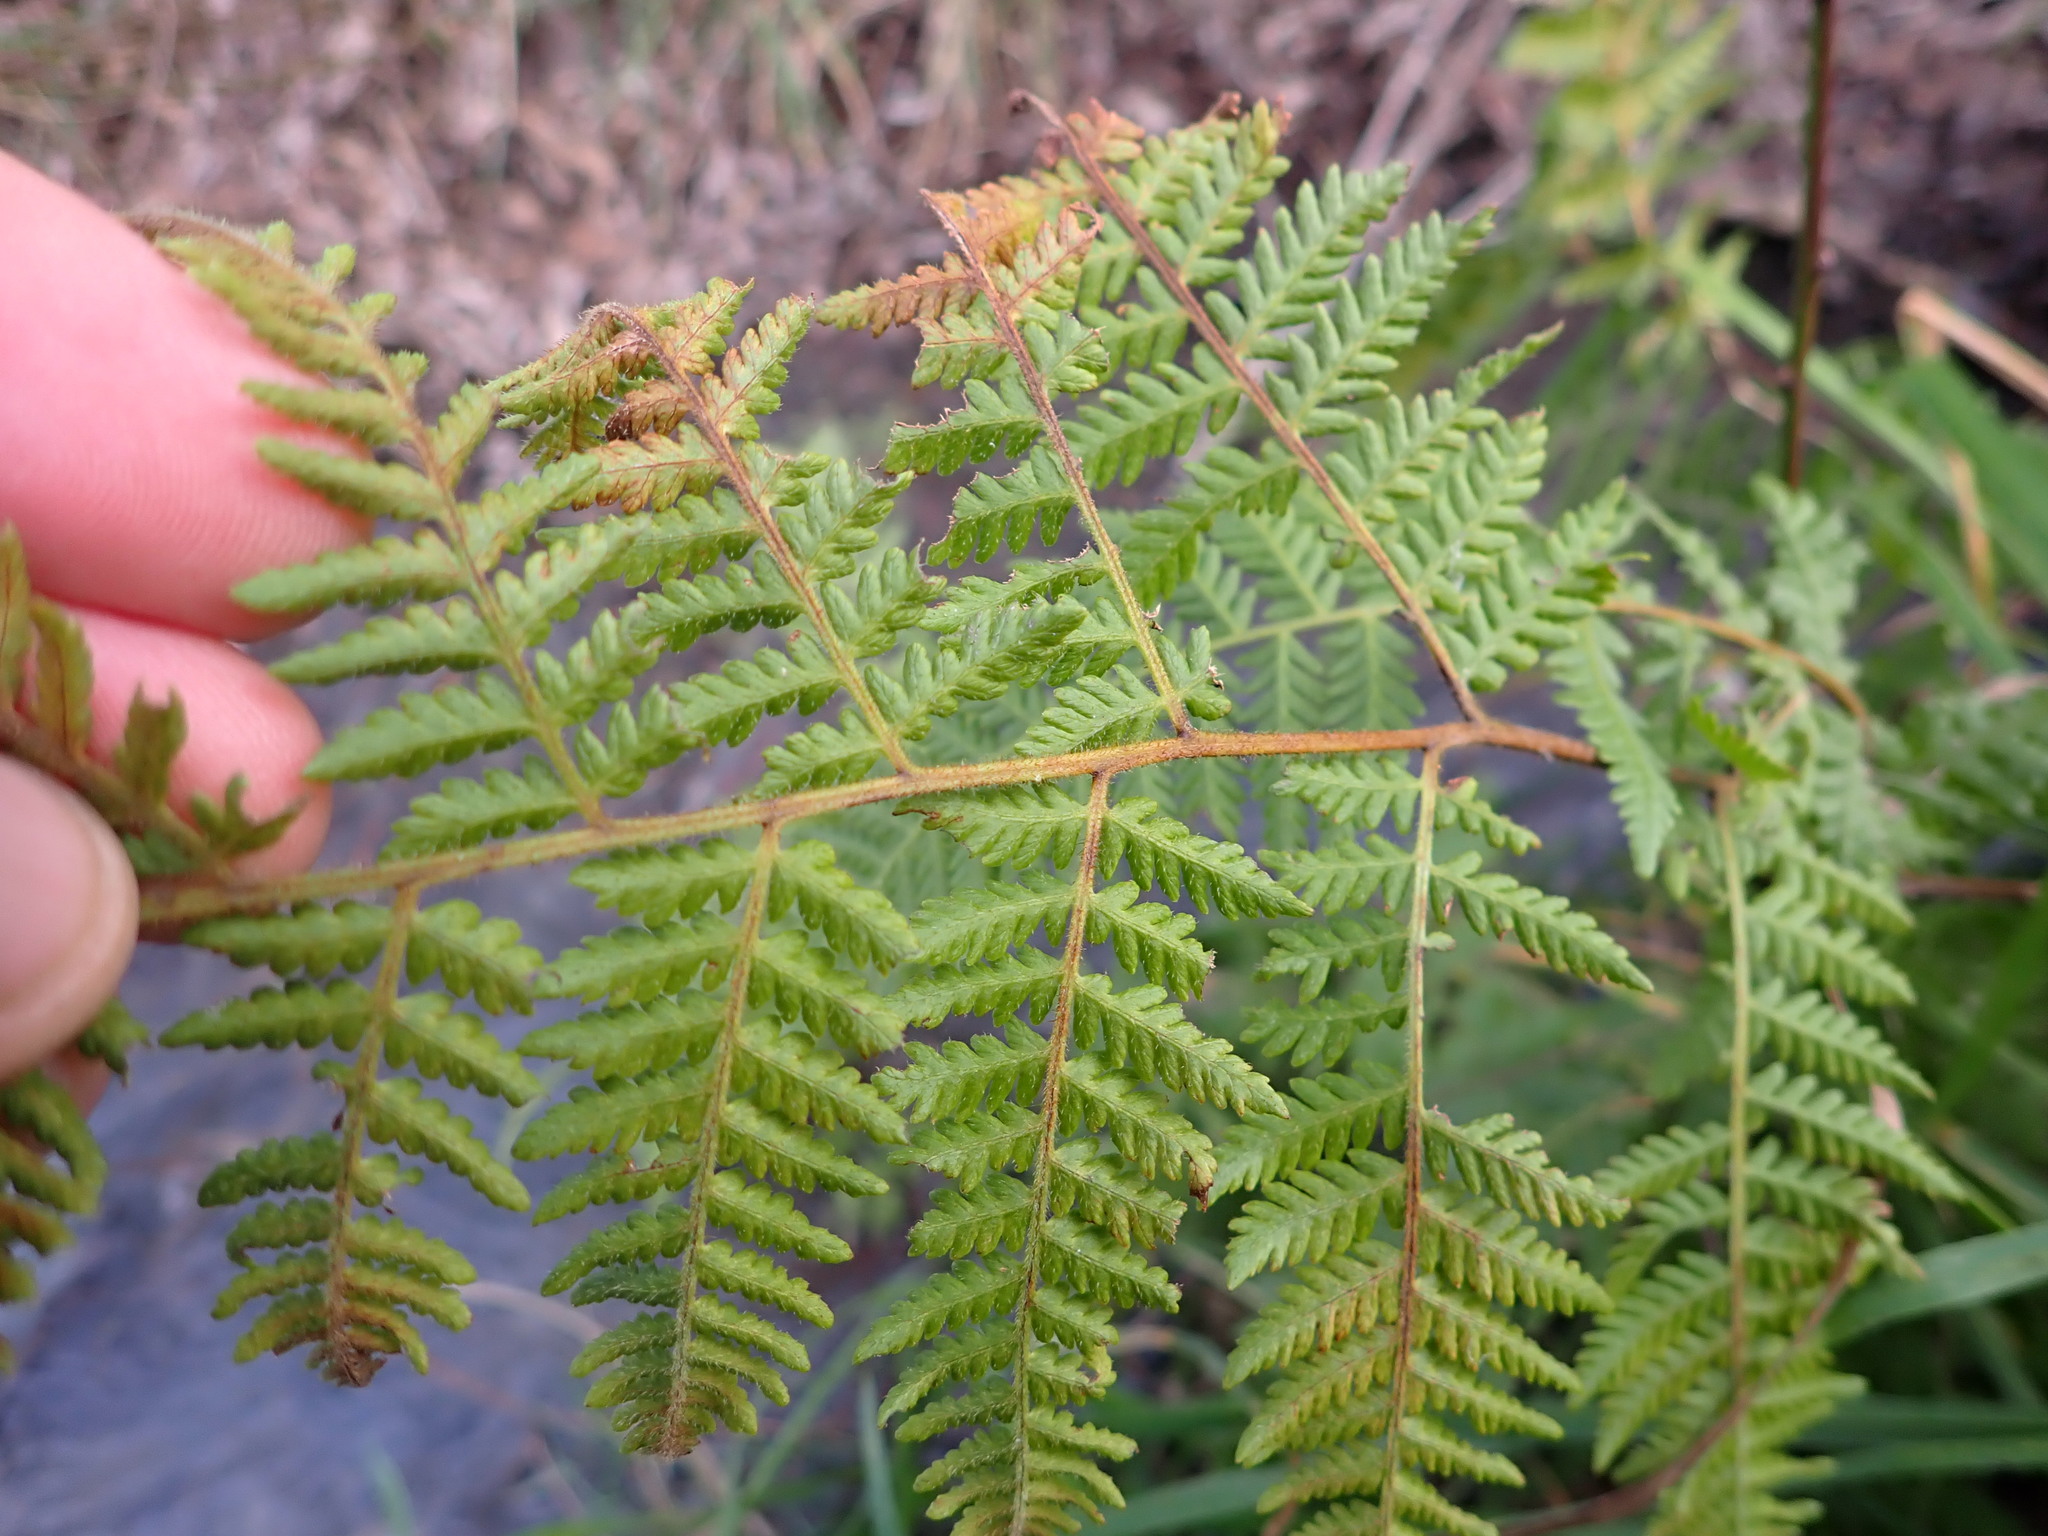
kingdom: Plantae
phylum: Tracheophyta
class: Polypodiopsida
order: Polypodiales
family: Dennstaedtiaceae
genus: Hypolepis
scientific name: Hypolepis ambigua
